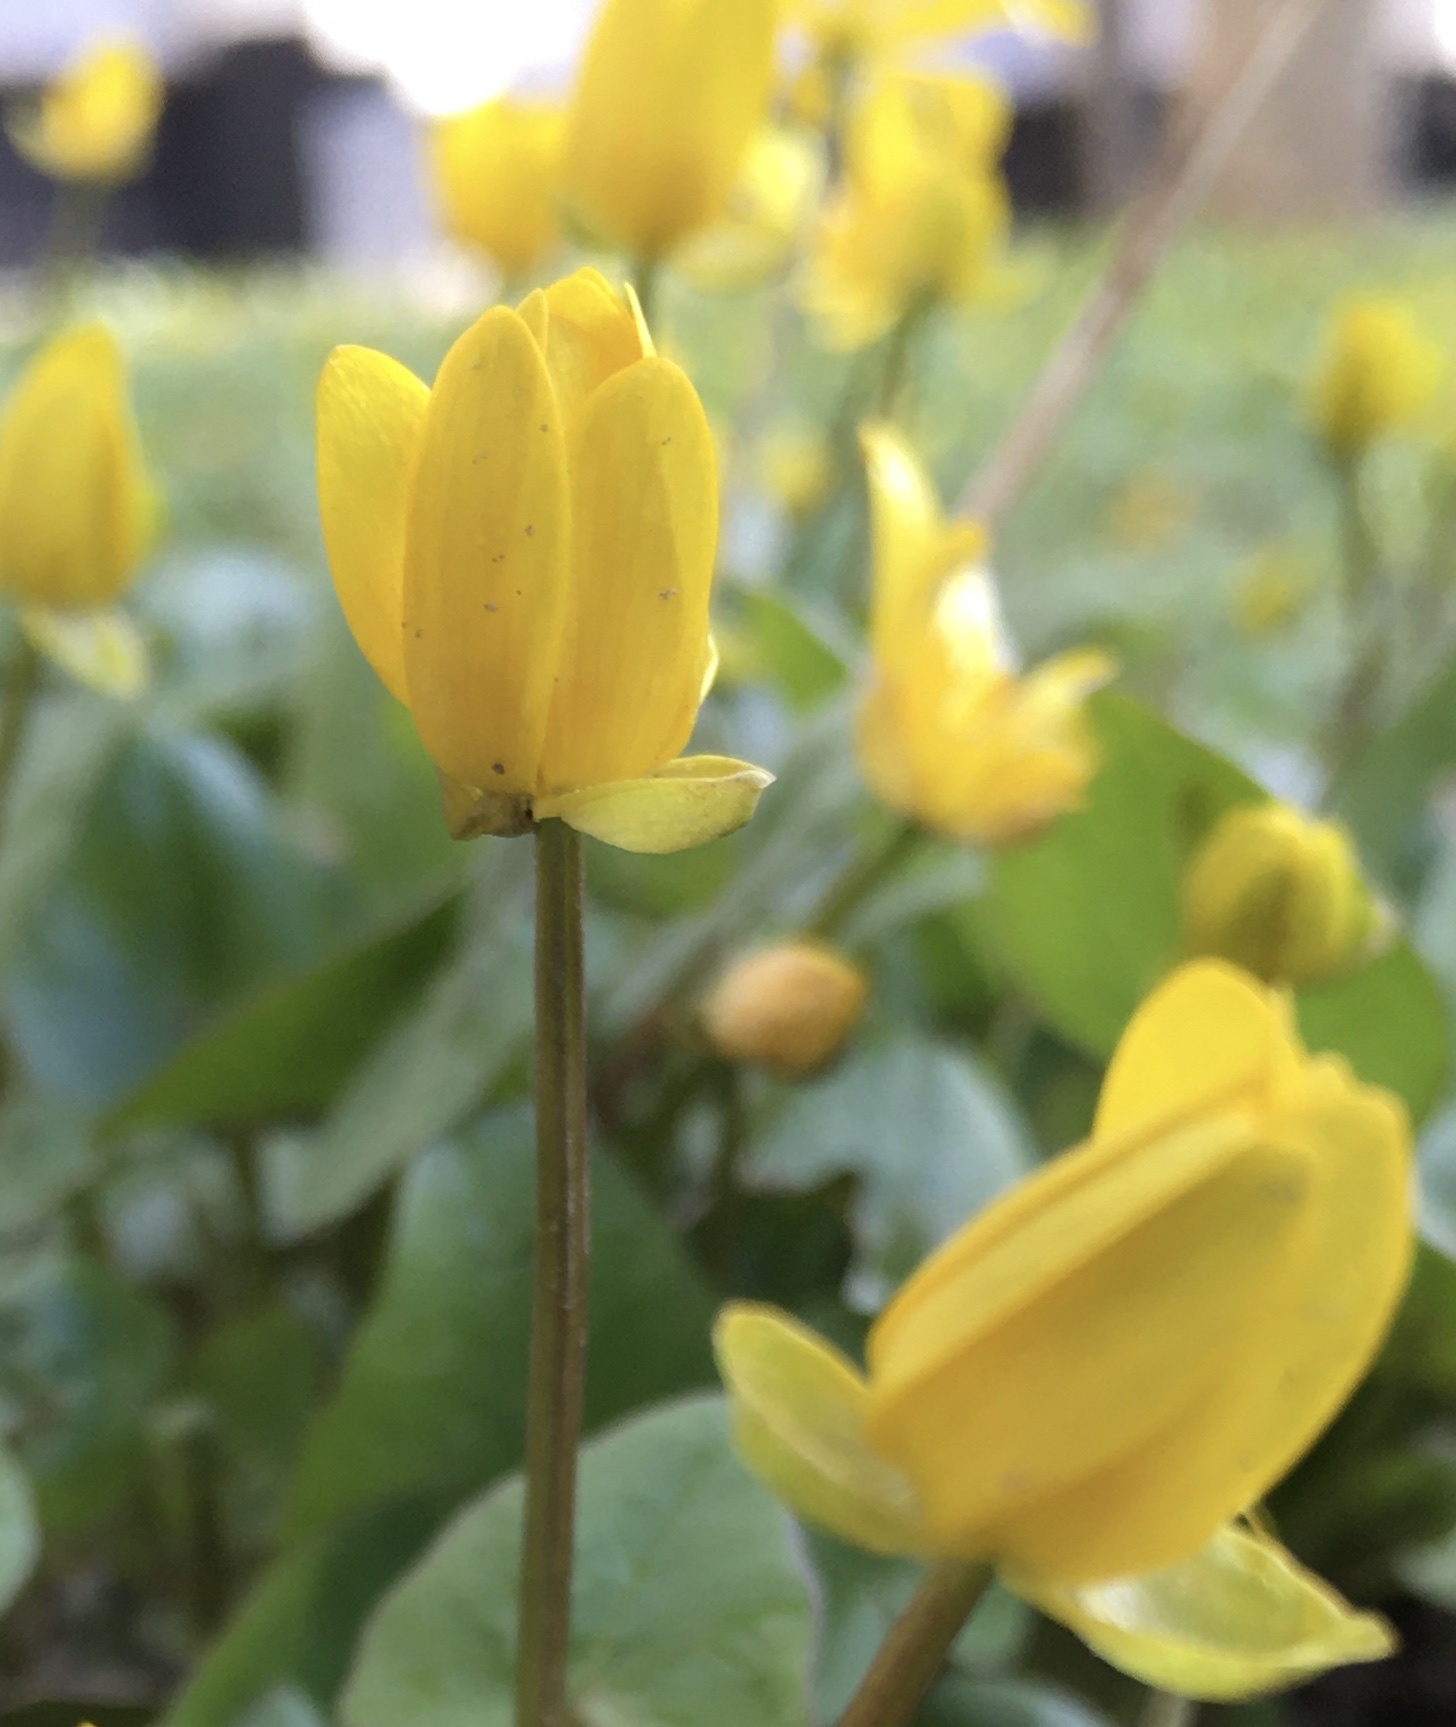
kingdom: Plantae
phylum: Tracheophyta
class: Magnoliopsida
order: Ranunculales
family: Ranunculaceae
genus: Ficaria
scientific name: Ficaria verna
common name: Lesser celandine
